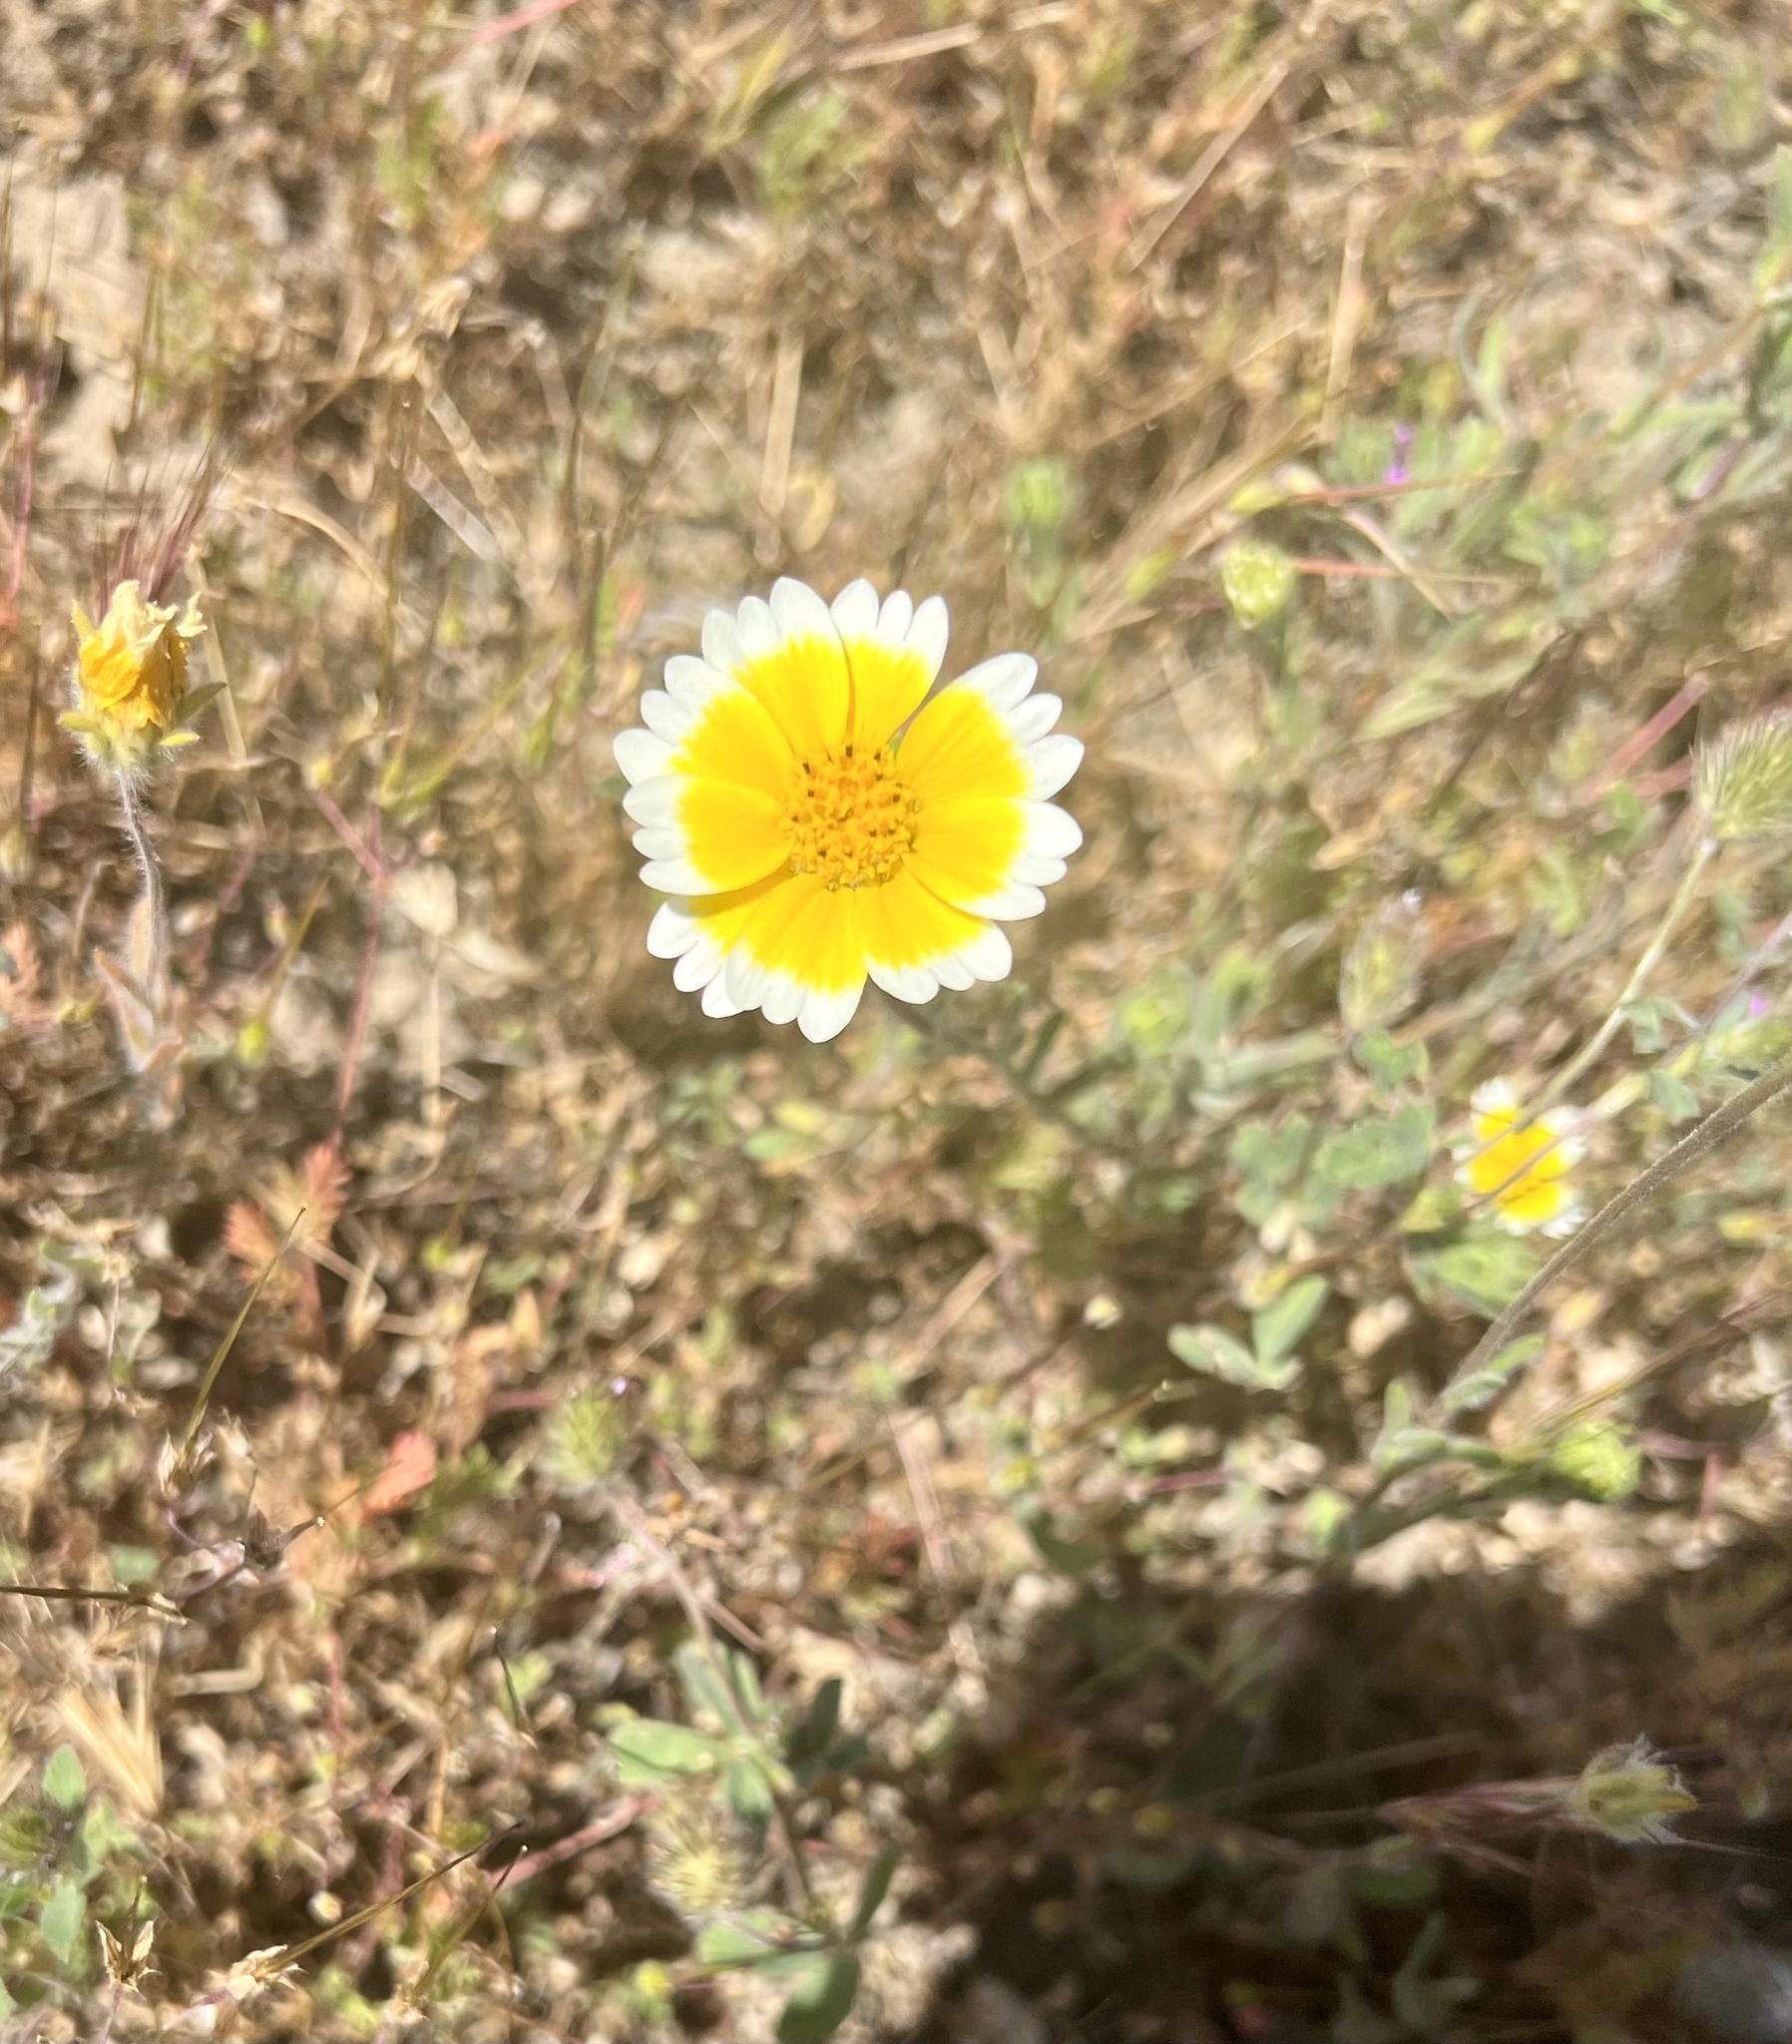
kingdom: Plantae
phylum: Tracheophyta
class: Magnoliopsida
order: Asterales
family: Asteraceae
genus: Layia
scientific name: Layia platyglossa
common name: Tidy-tips
